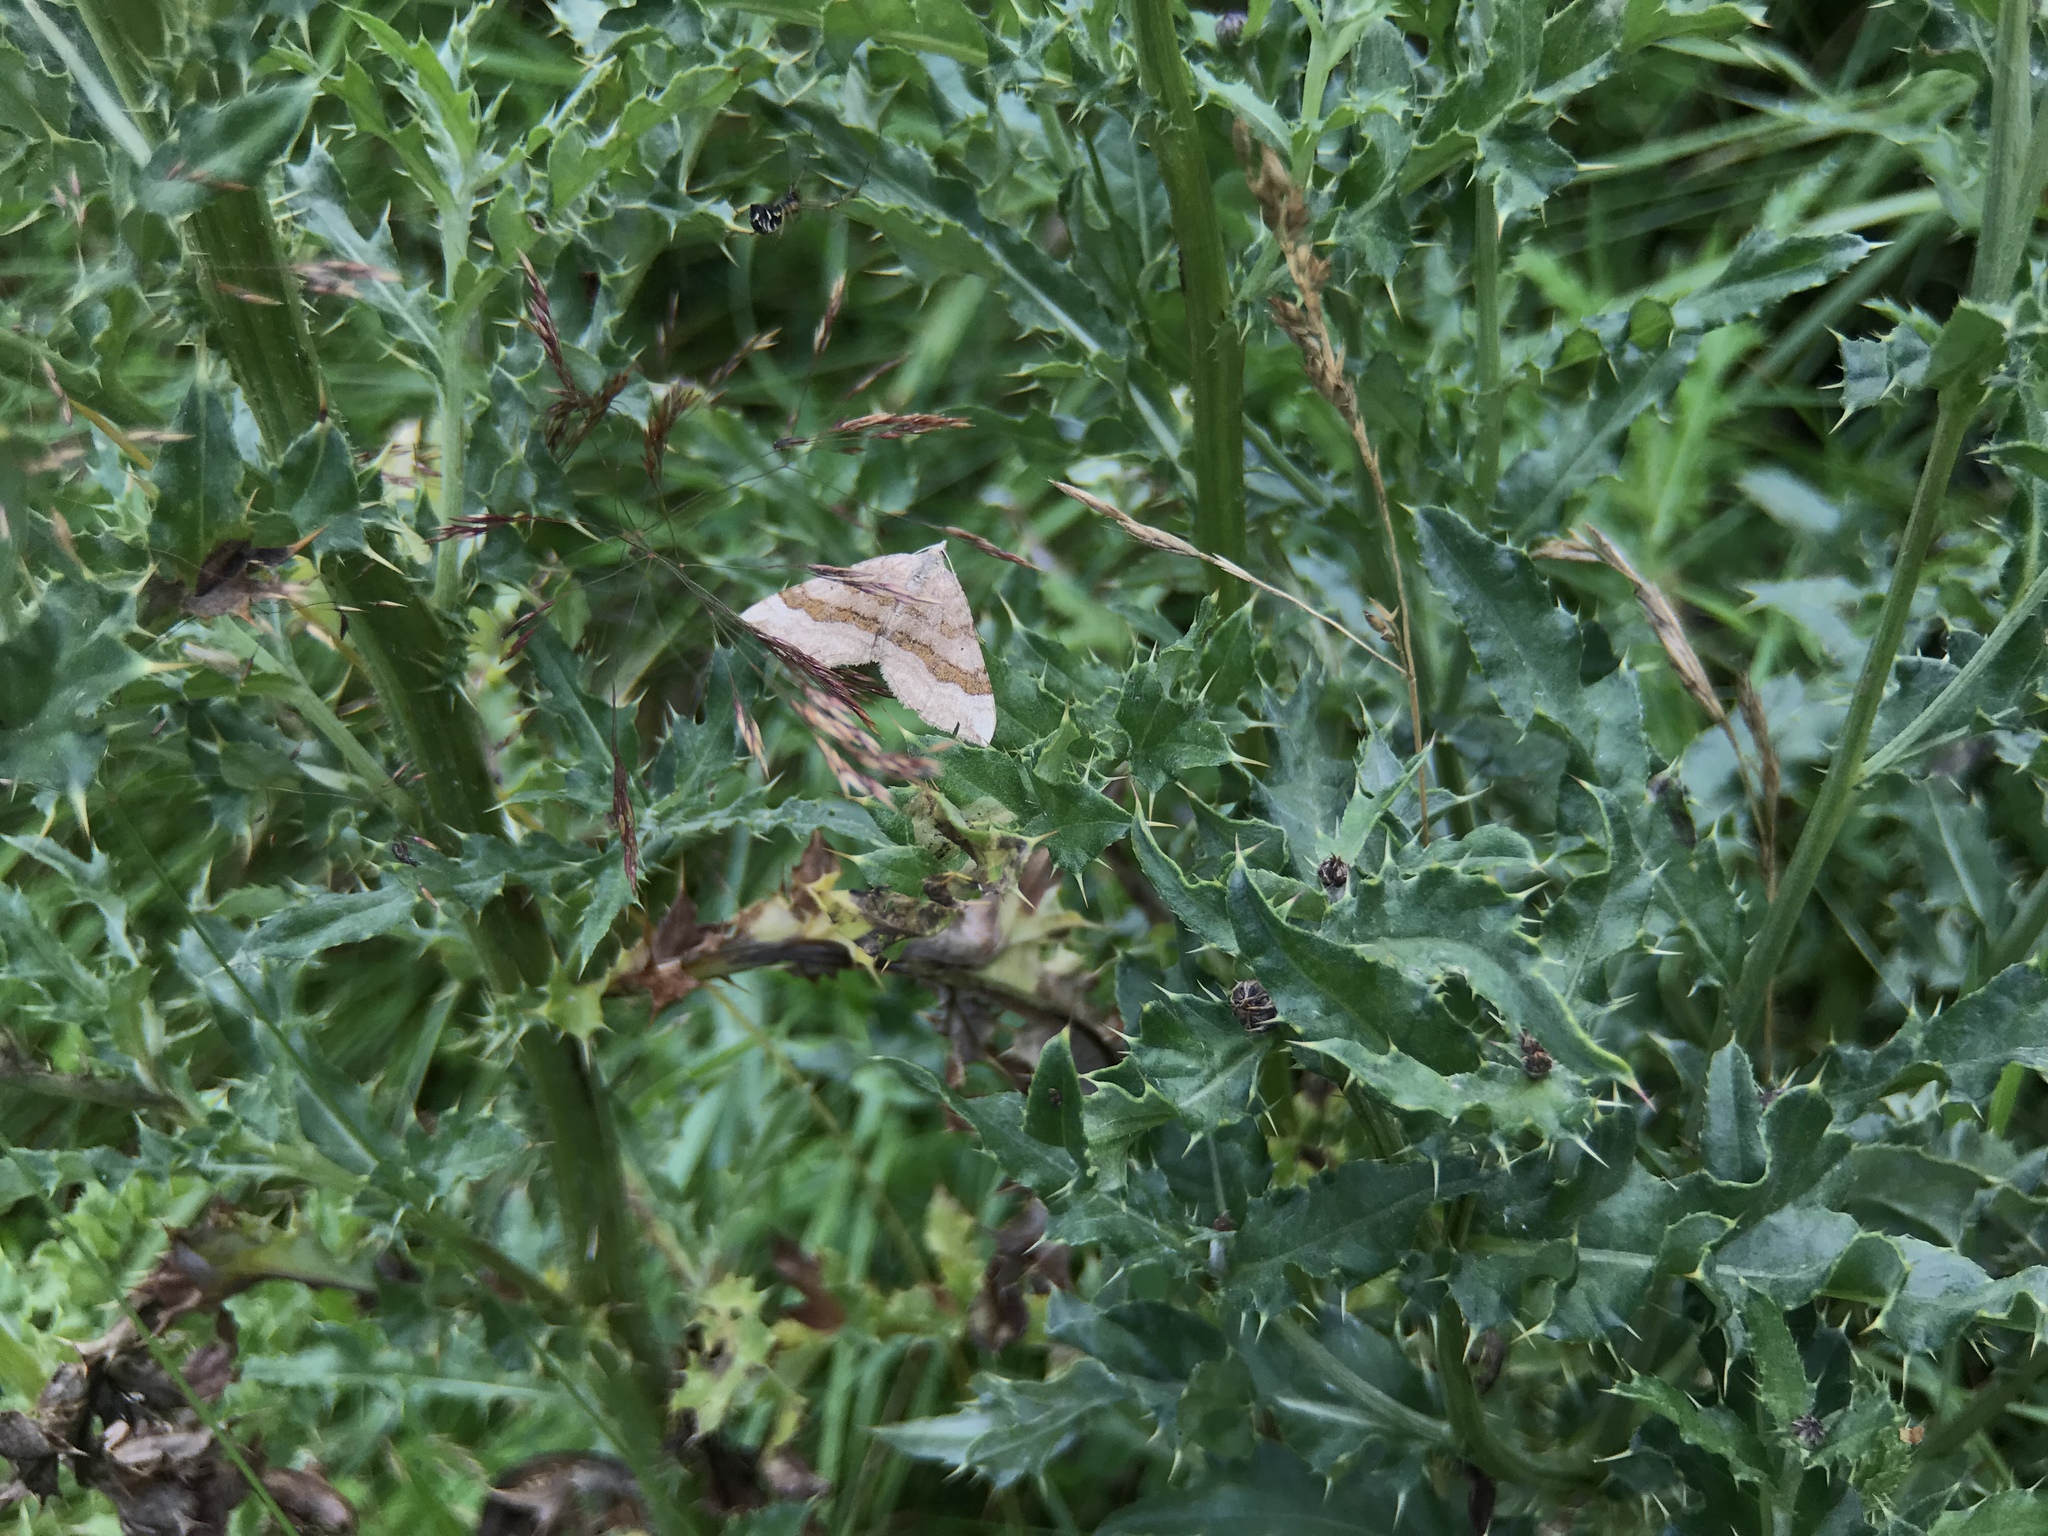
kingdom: Animalia
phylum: Arthropoda
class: Insecta
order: Lepidoptera
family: Geometridae
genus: Scotopteryx
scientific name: Scotopteryx chenopodiata
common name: Shaded broad-bar
